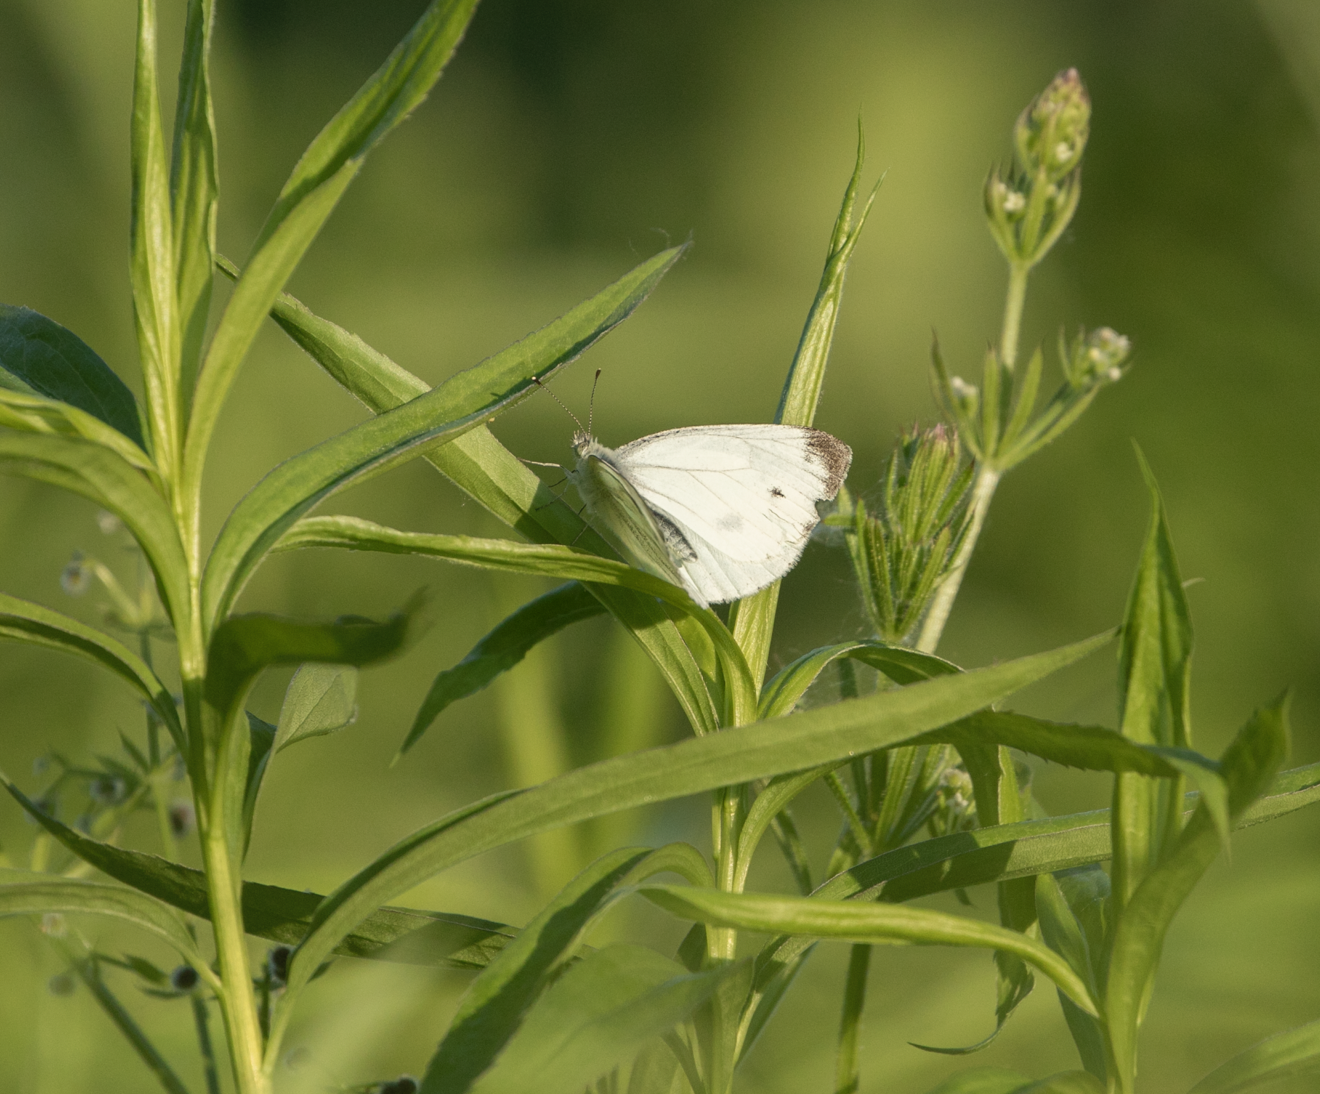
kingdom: Animalia
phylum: Arthropoda
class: Insecta
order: Lepidoptera
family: Pieridae
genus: Pieris
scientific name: Pieris napi
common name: Green-veined white
